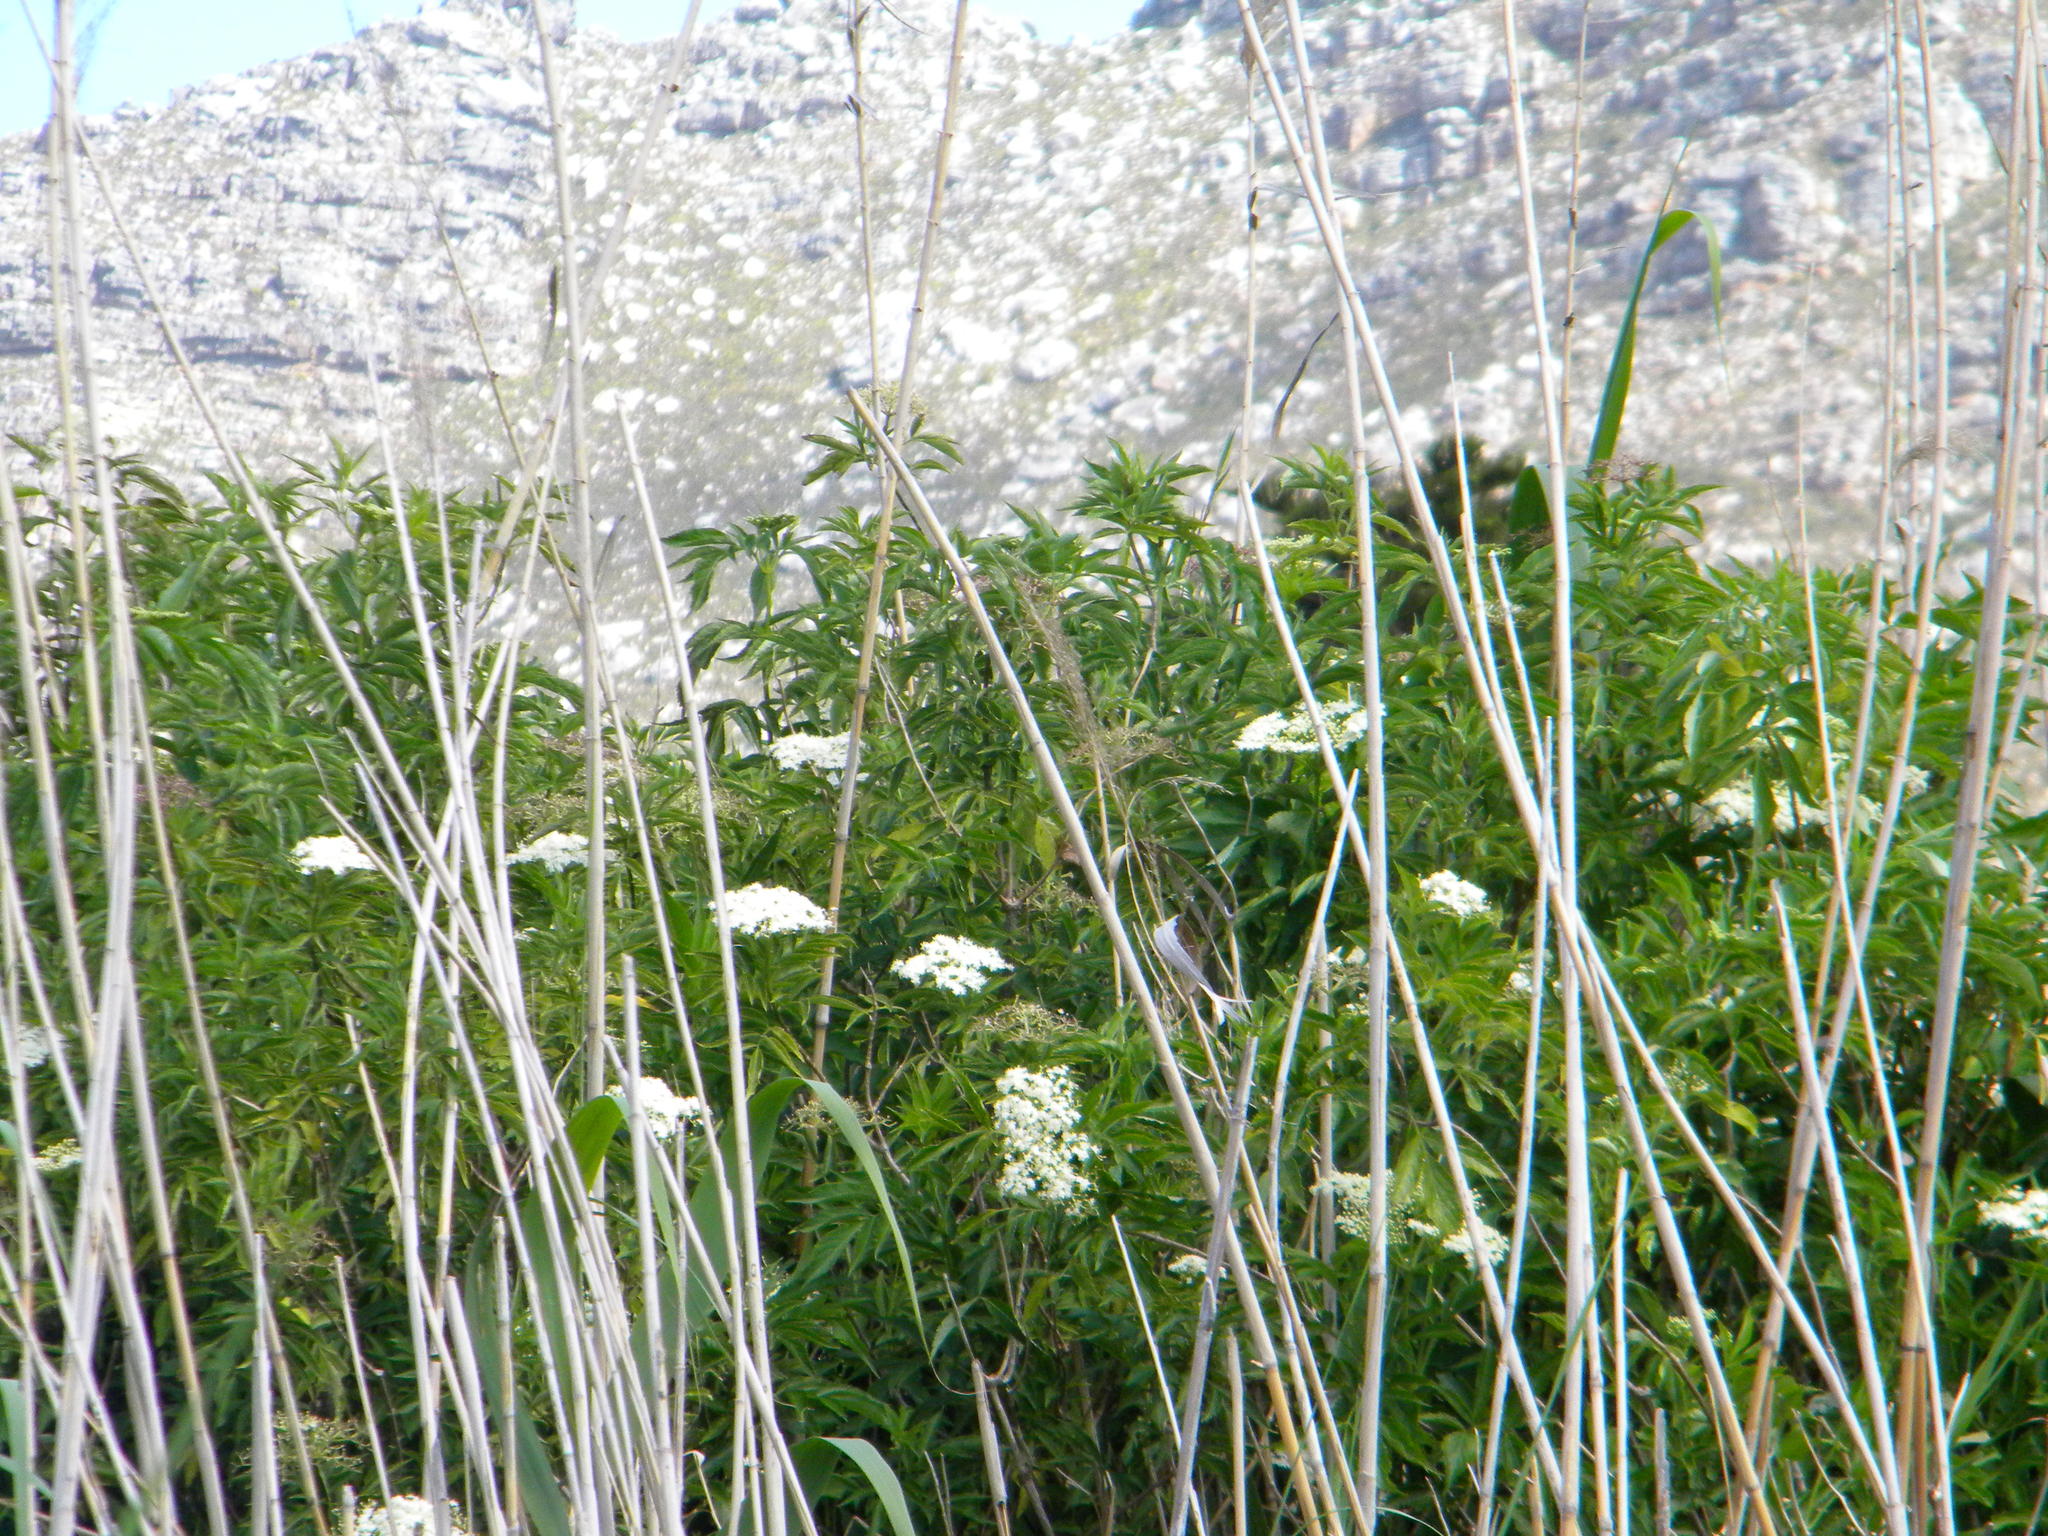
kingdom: Plantae
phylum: Tracheophyta
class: Magnoliopsida
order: Dipsacales
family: Viburnaceae
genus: Sambucus
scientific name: Sambucus nigra
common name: Elder
